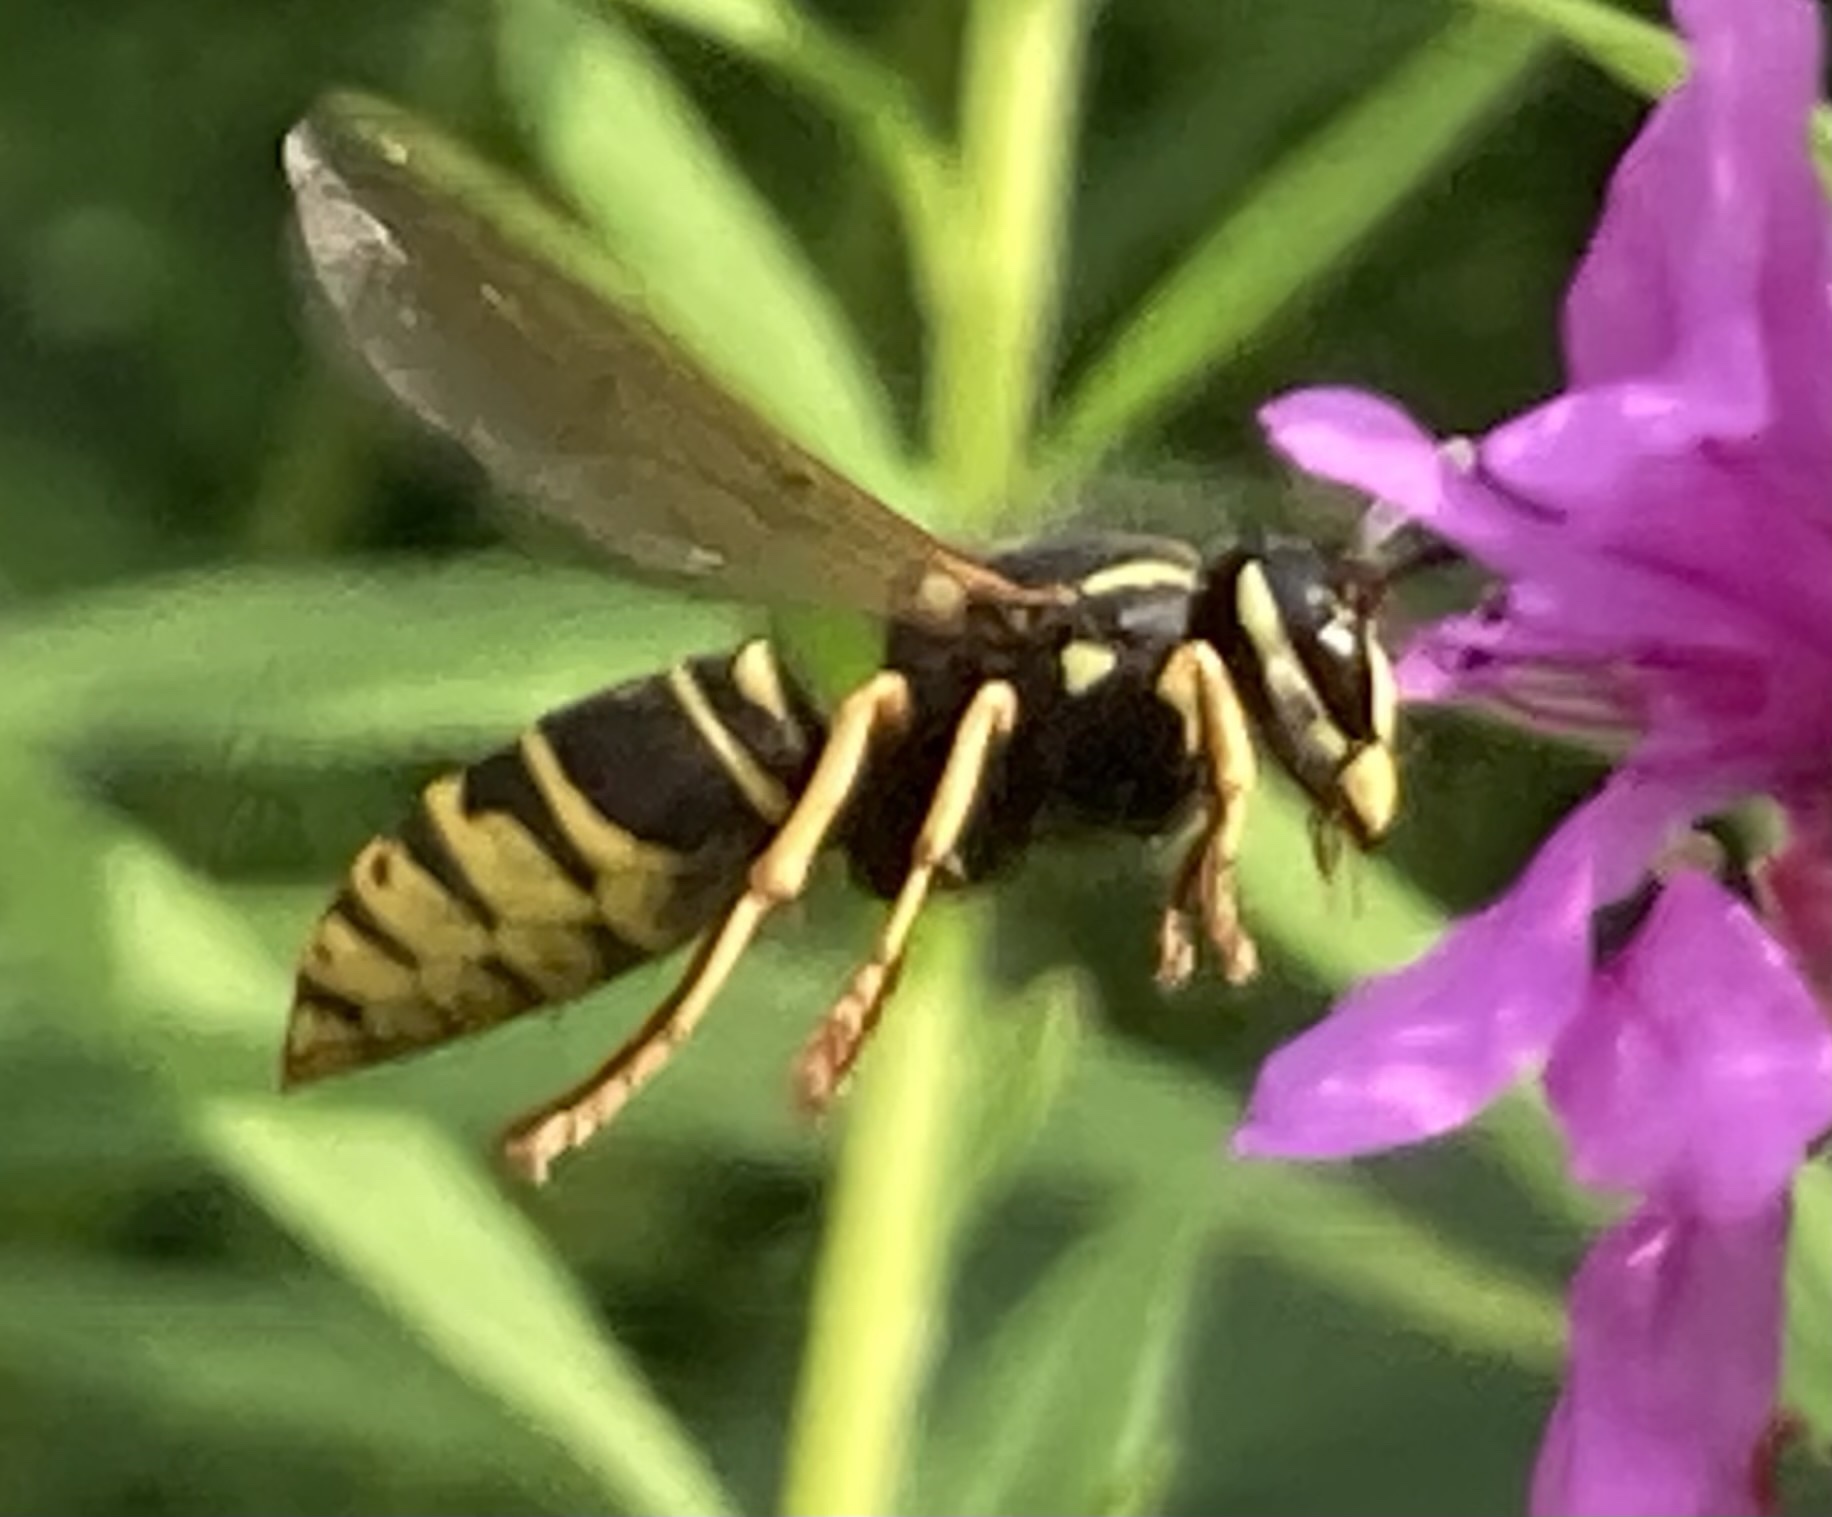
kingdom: Animalia
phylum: Arthropoda
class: Insecta
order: Hymenoptera
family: Vespidae
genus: Vespula
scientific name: Vespula vidua
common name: Widow yellowjacket
